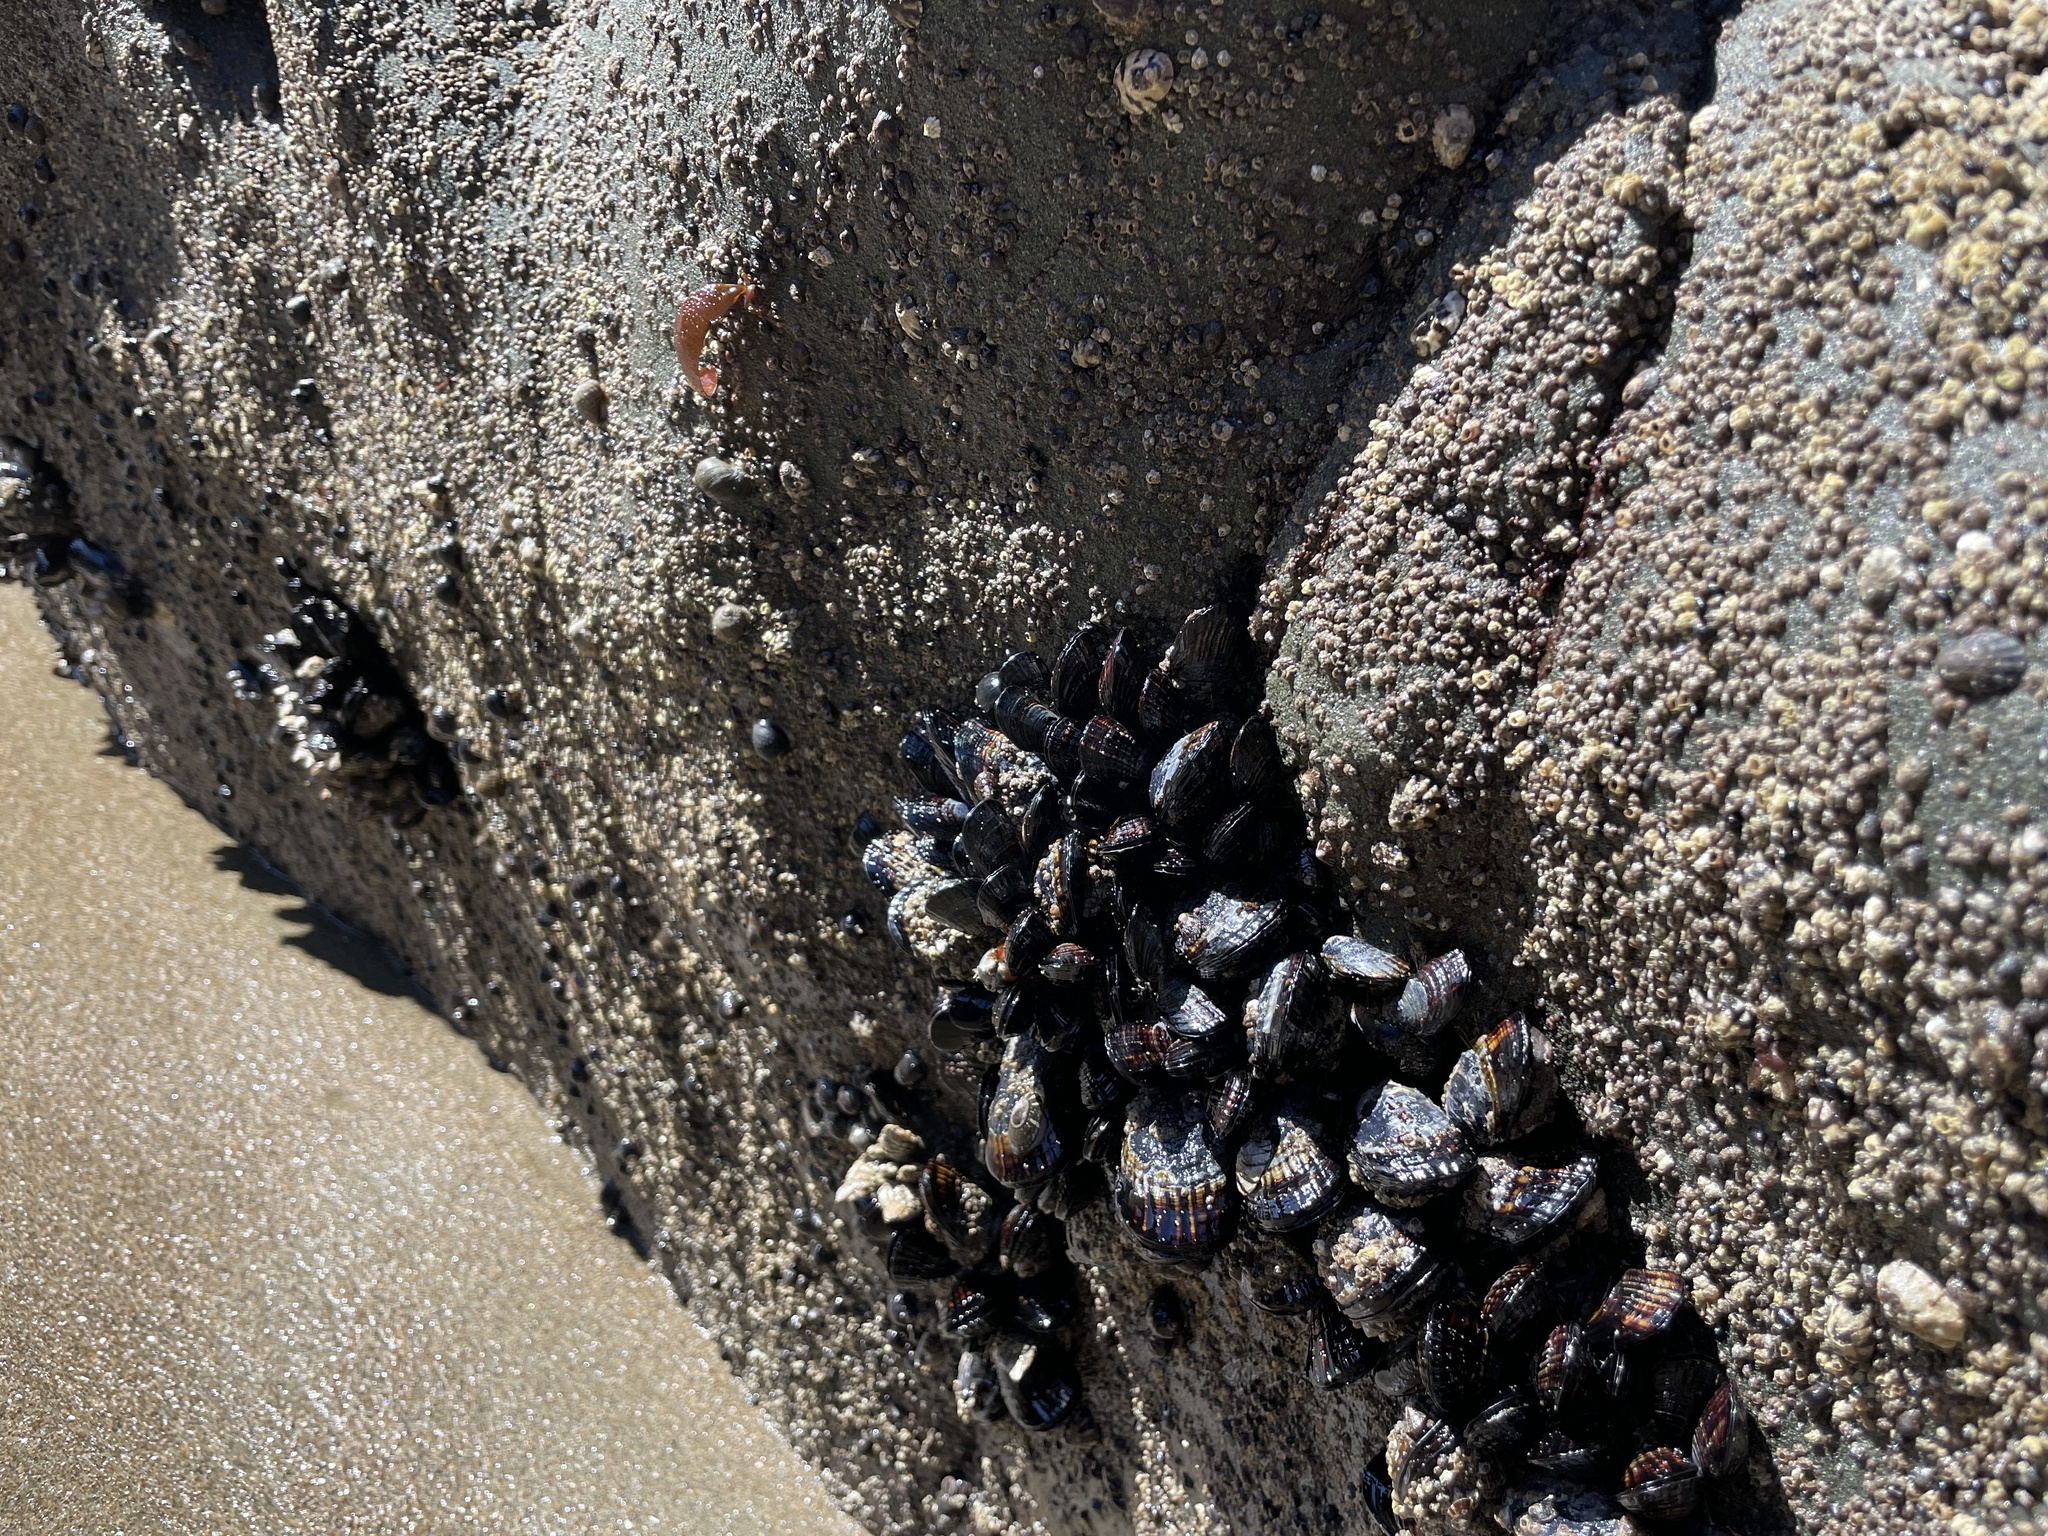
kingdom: Animalia
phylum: Mollusca
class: Bivalvia
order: Mytilida
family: Mytilidae
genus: Mytilus
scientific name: Mytilus californianus
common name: California mussel
